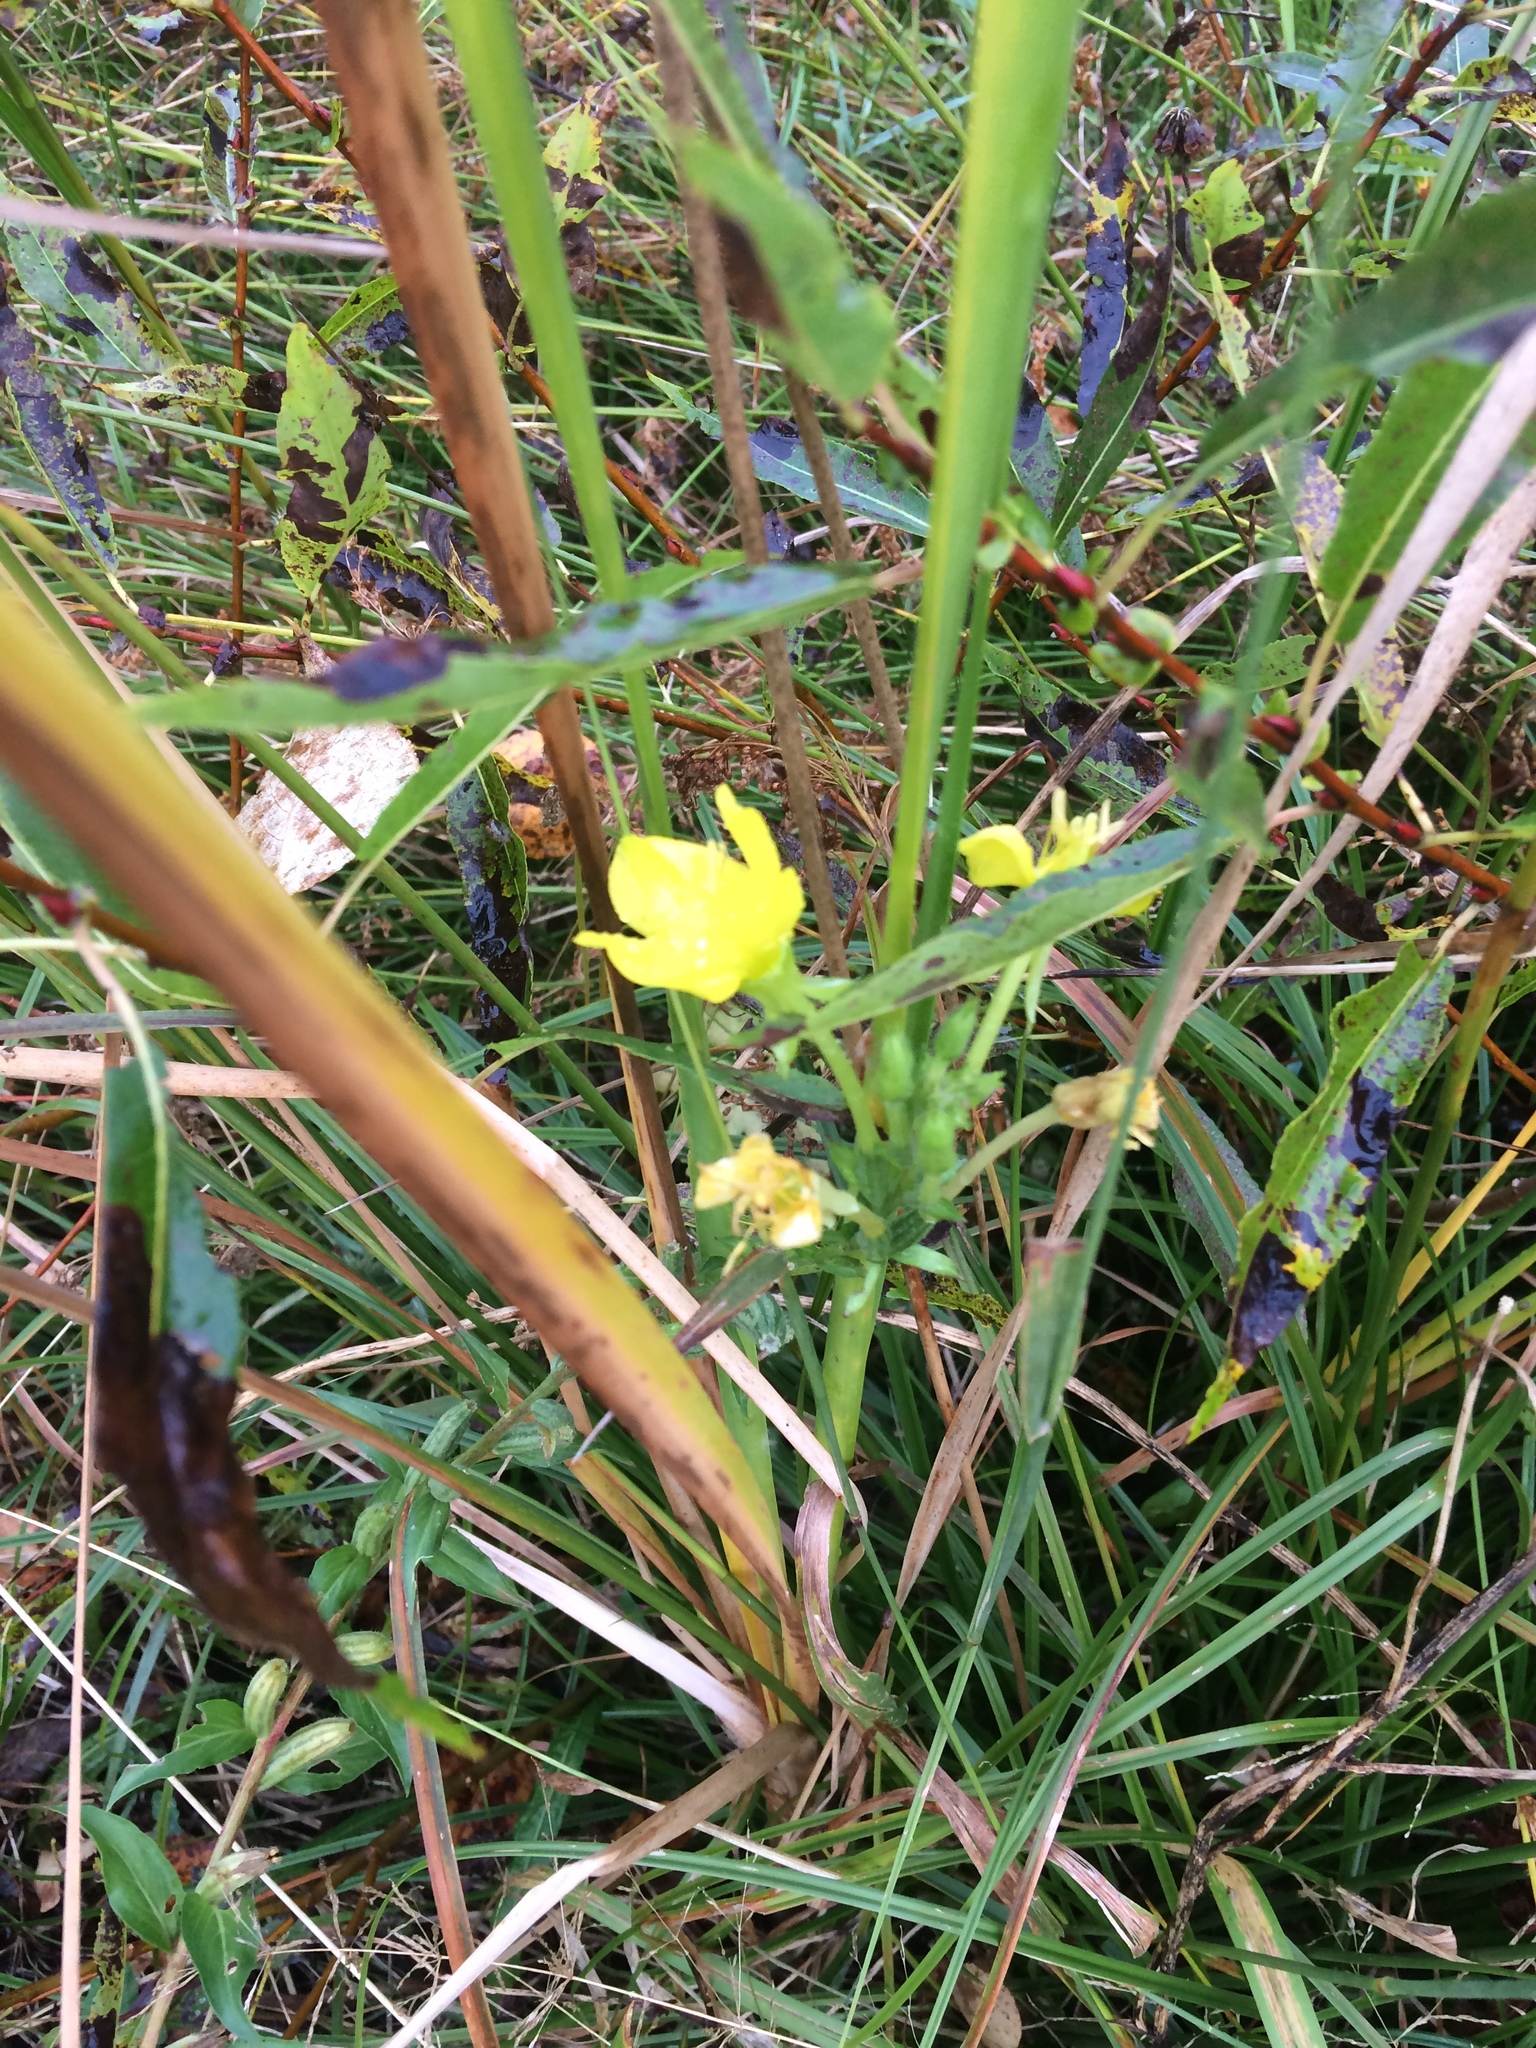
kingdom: Plantae
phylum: Tracheophyta
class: Magnoliopsida
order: Myrtales
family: Onagraceae
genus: Oenothera
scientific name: Oenothera biennis
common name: Common evening-primrose
